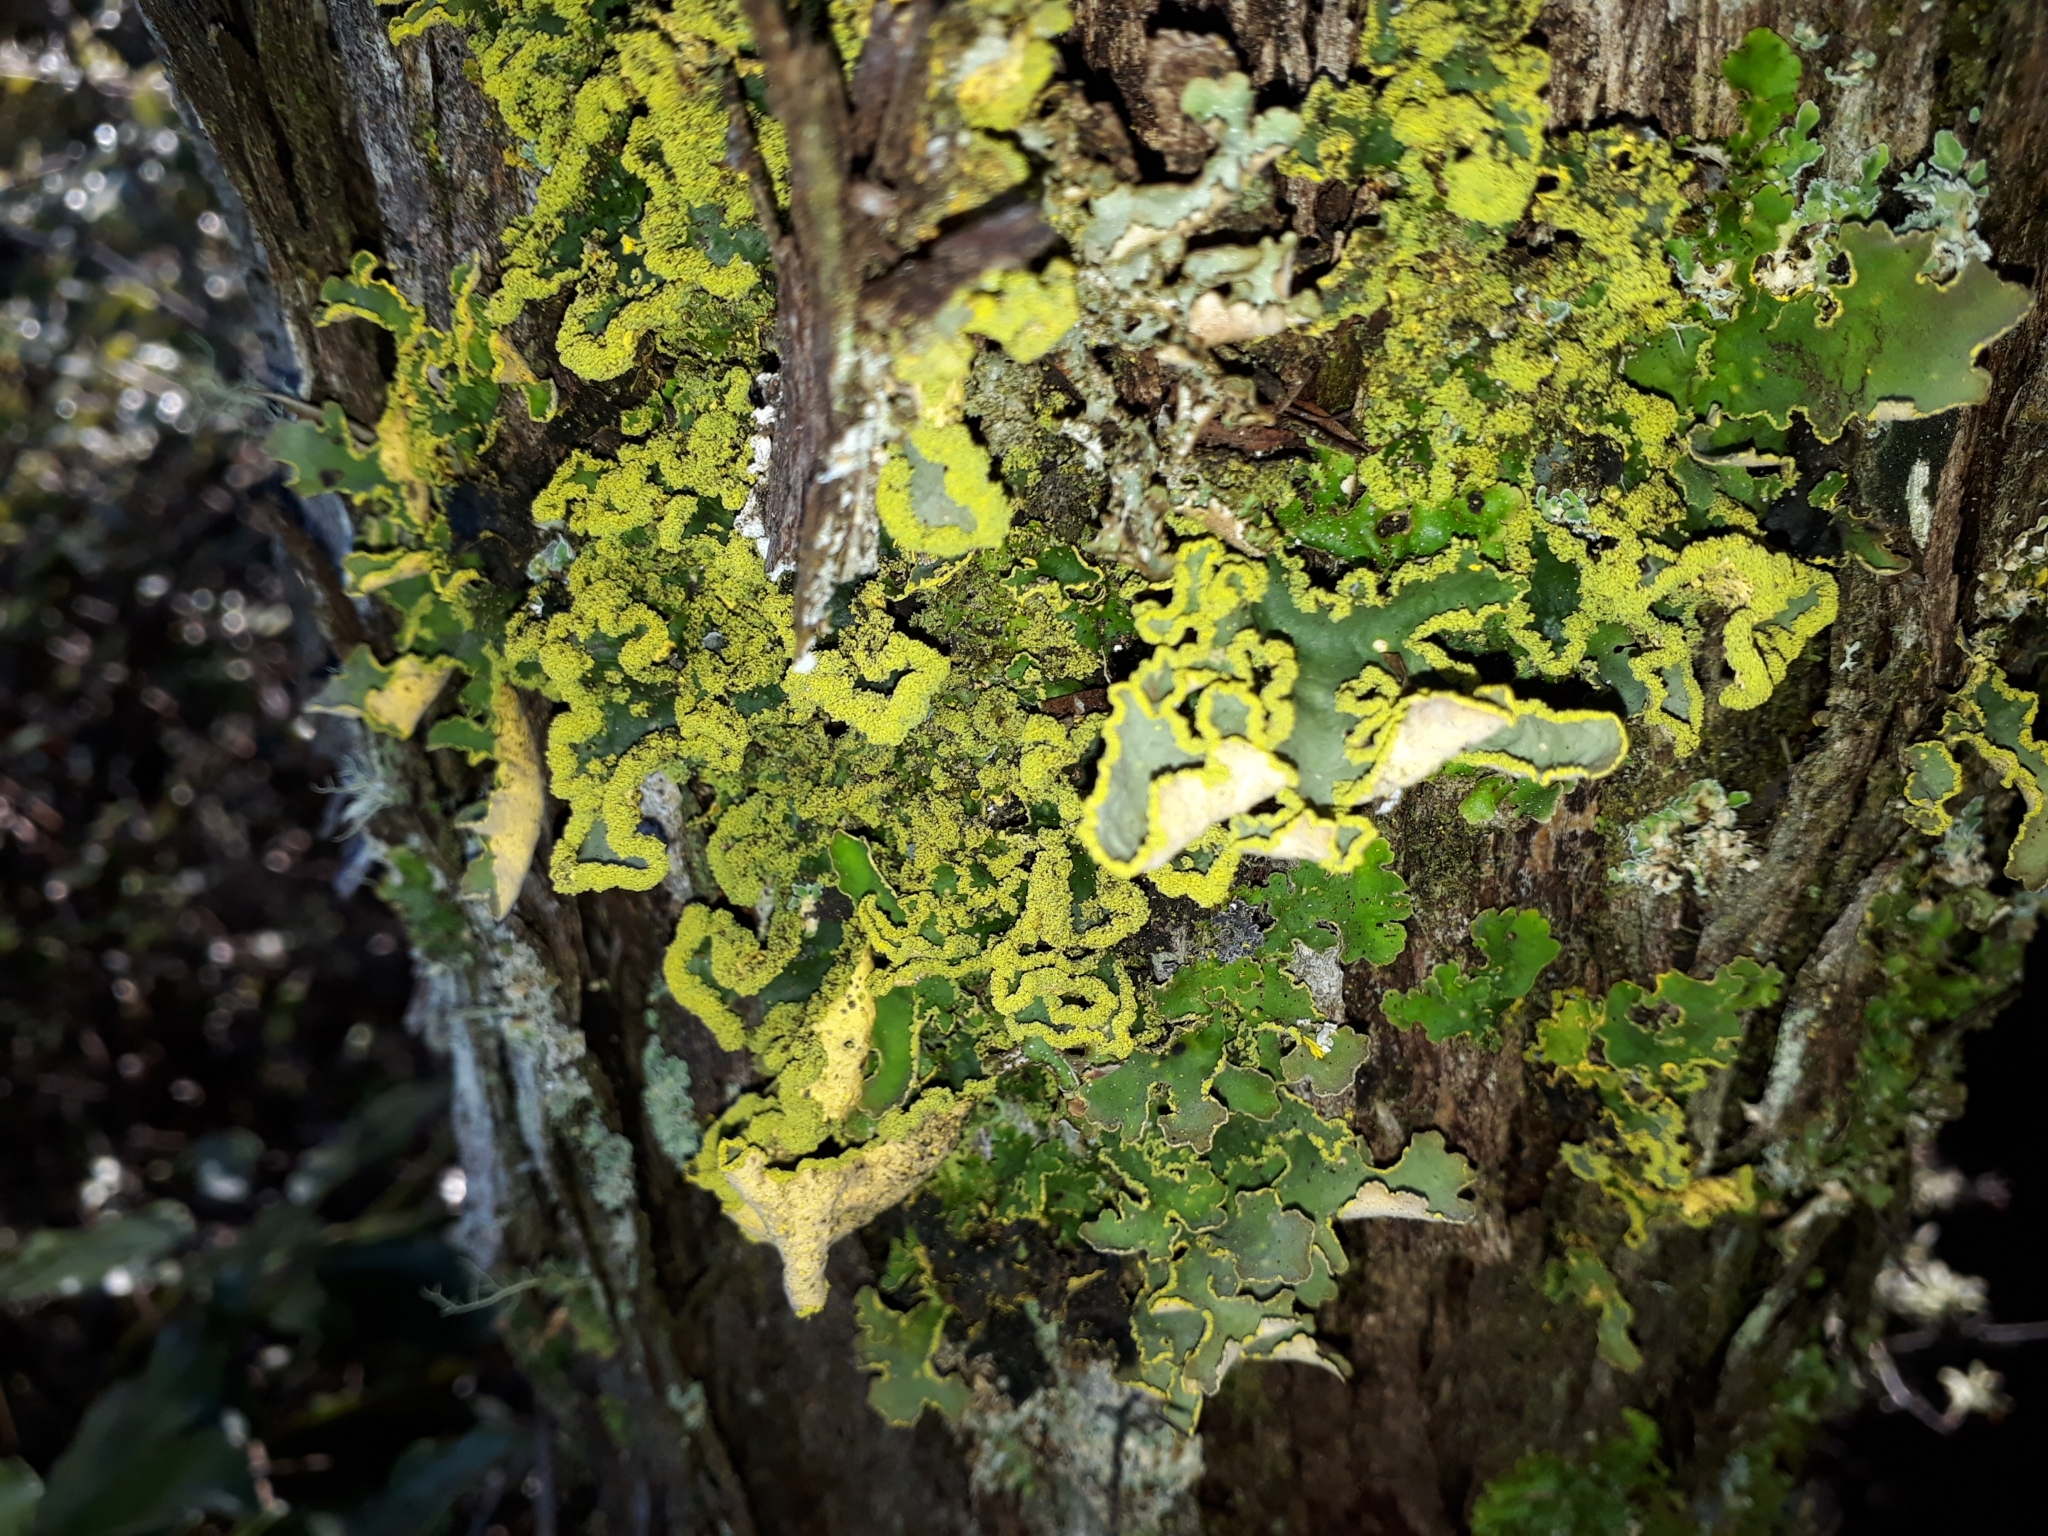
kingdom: Fungi
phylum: Ascomycota
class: Lecanoromycetes
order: Peltigerales
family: Lobariaceae
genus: Crocodia
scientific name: Crocodia poculifera
